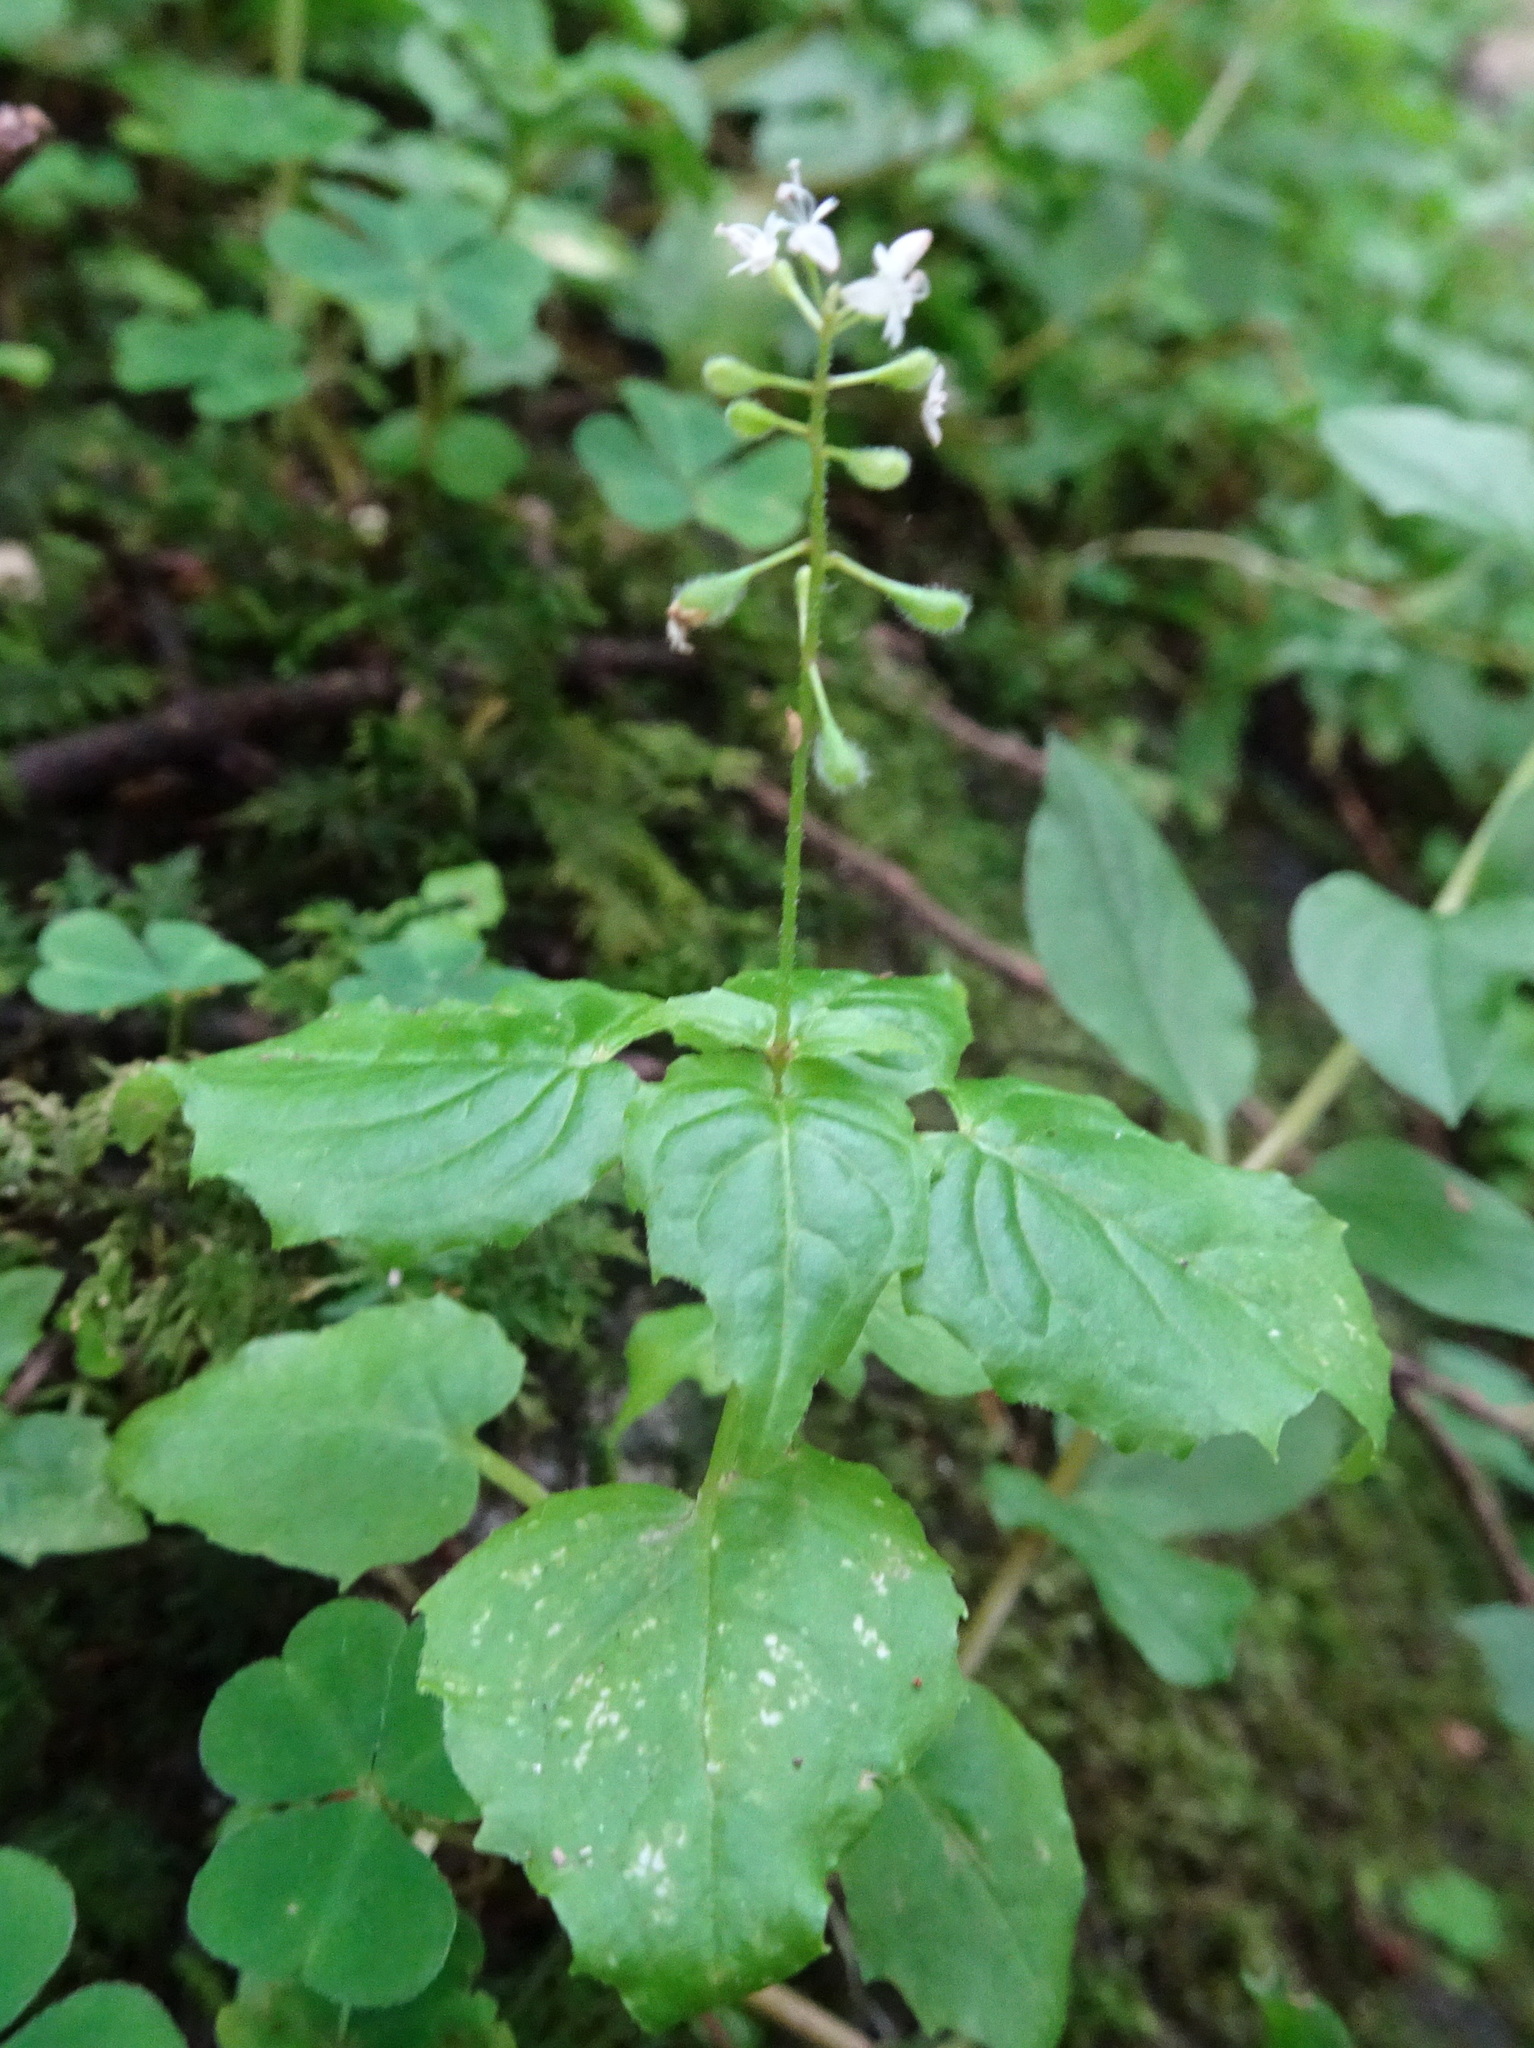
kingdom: Plantae
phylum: Tracheophyta
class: Magnoliopsida
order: Myrtales
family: Onagraceae
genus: Circaea
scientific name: Circaea alpina
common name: Alpine enchanter's-nightshade
